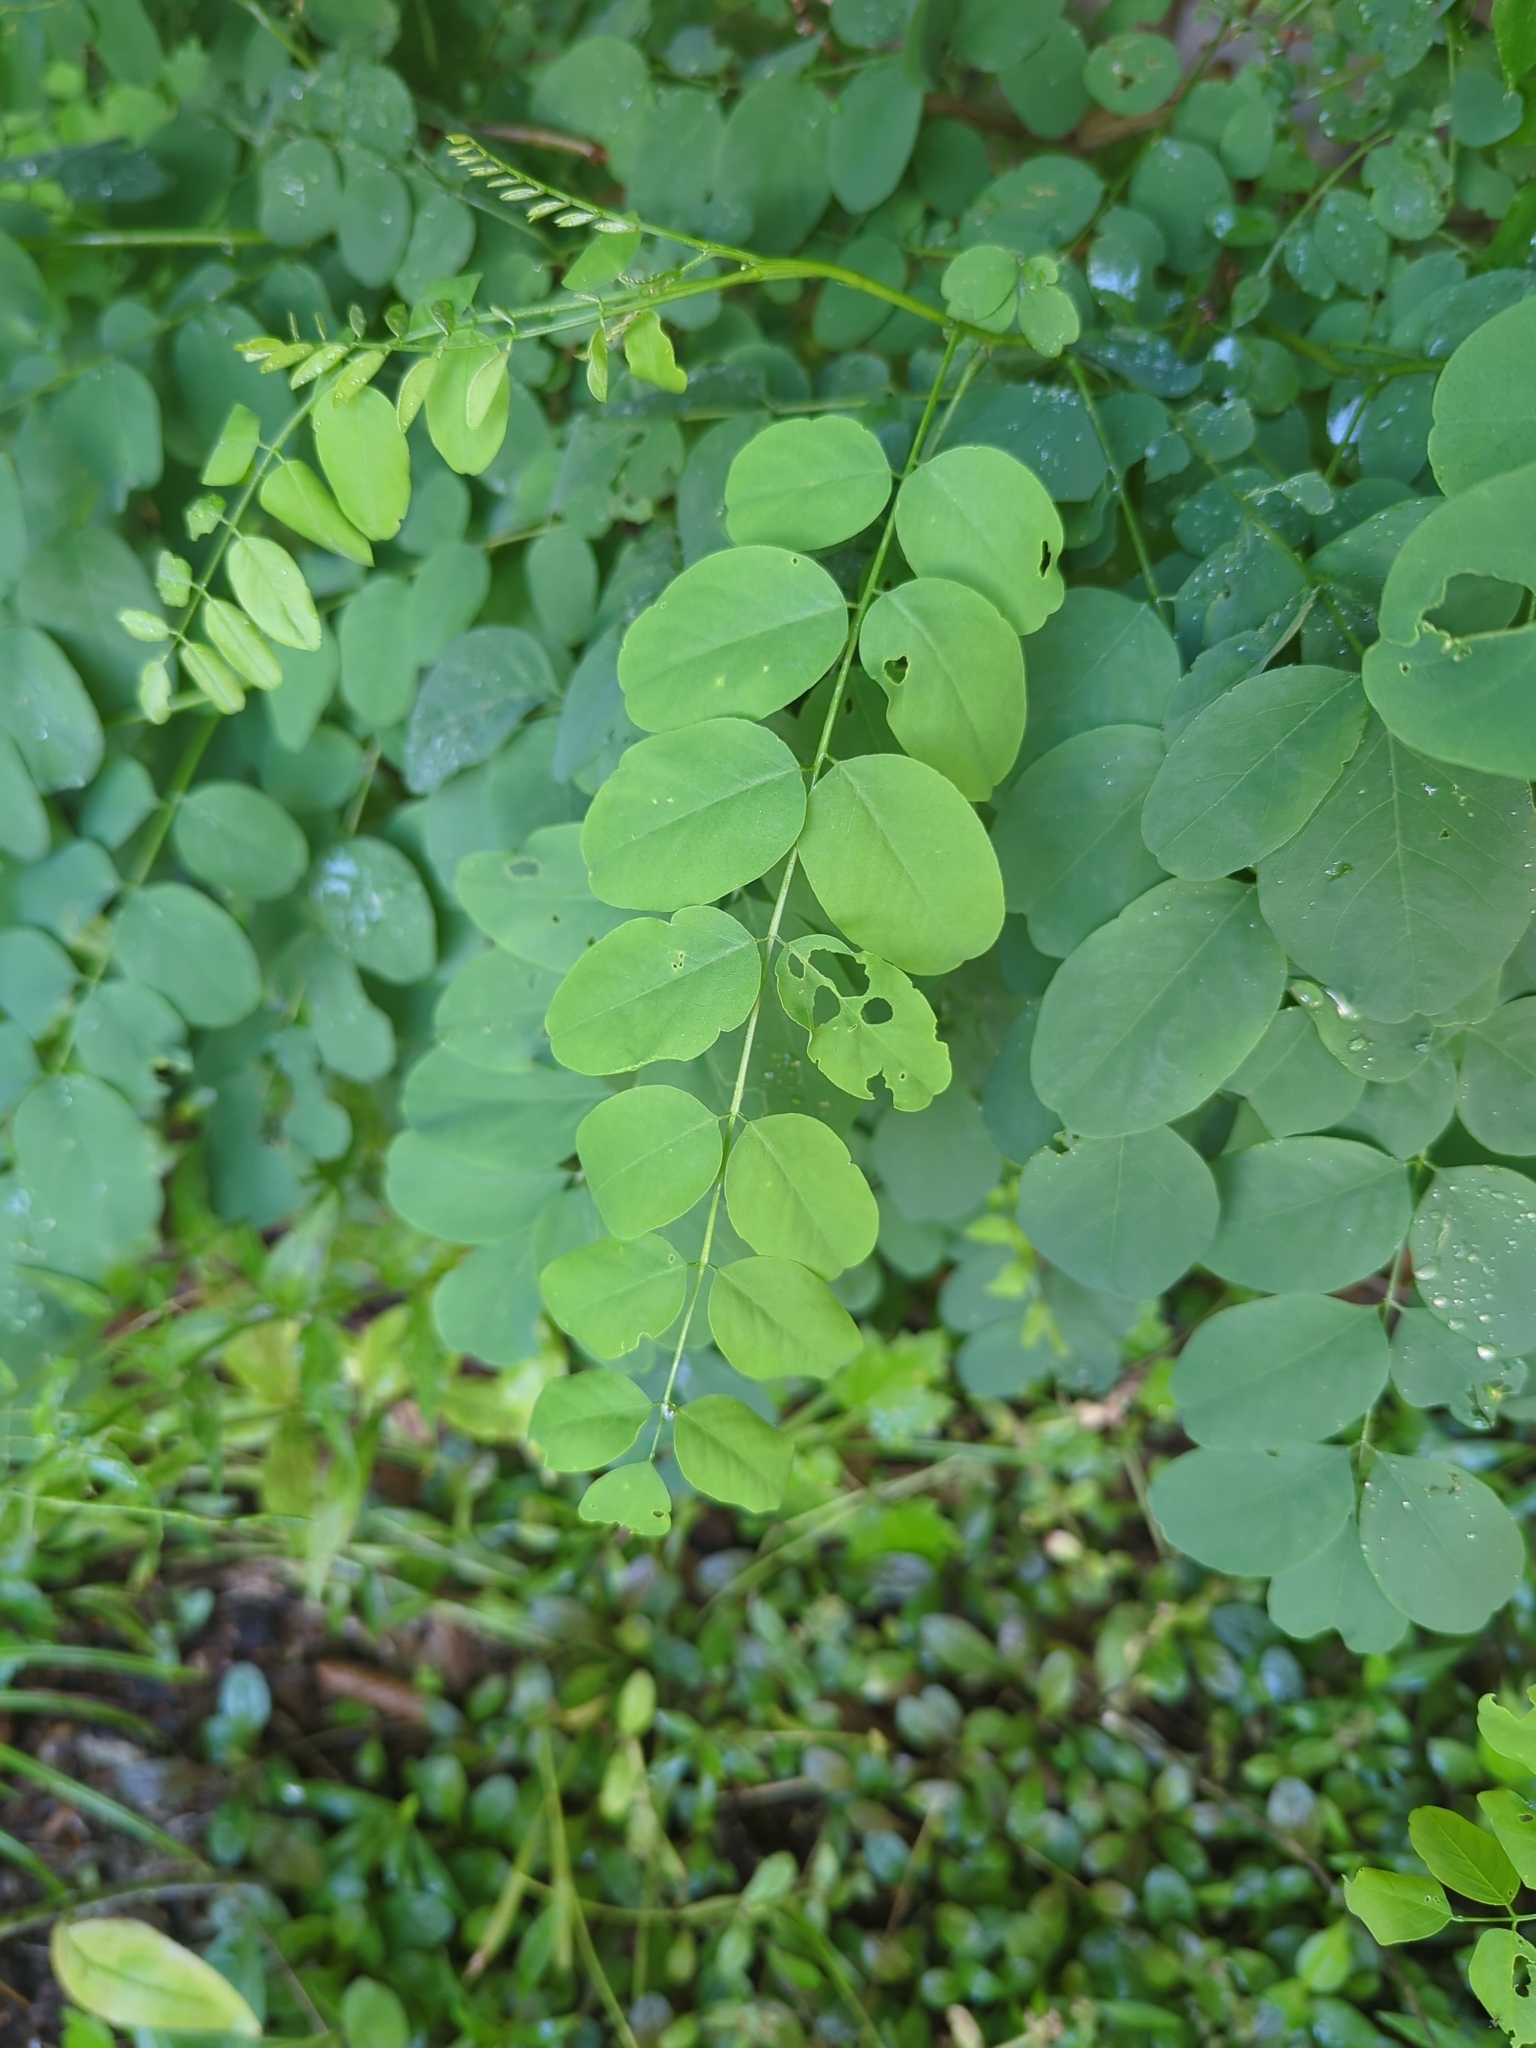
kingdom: Plantae
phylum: Tracheophyta
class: Magnoliopsida
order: Fabales
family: Fabaceae
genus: Robinia
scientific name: Robinia pseudoacacia
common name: Black locust
